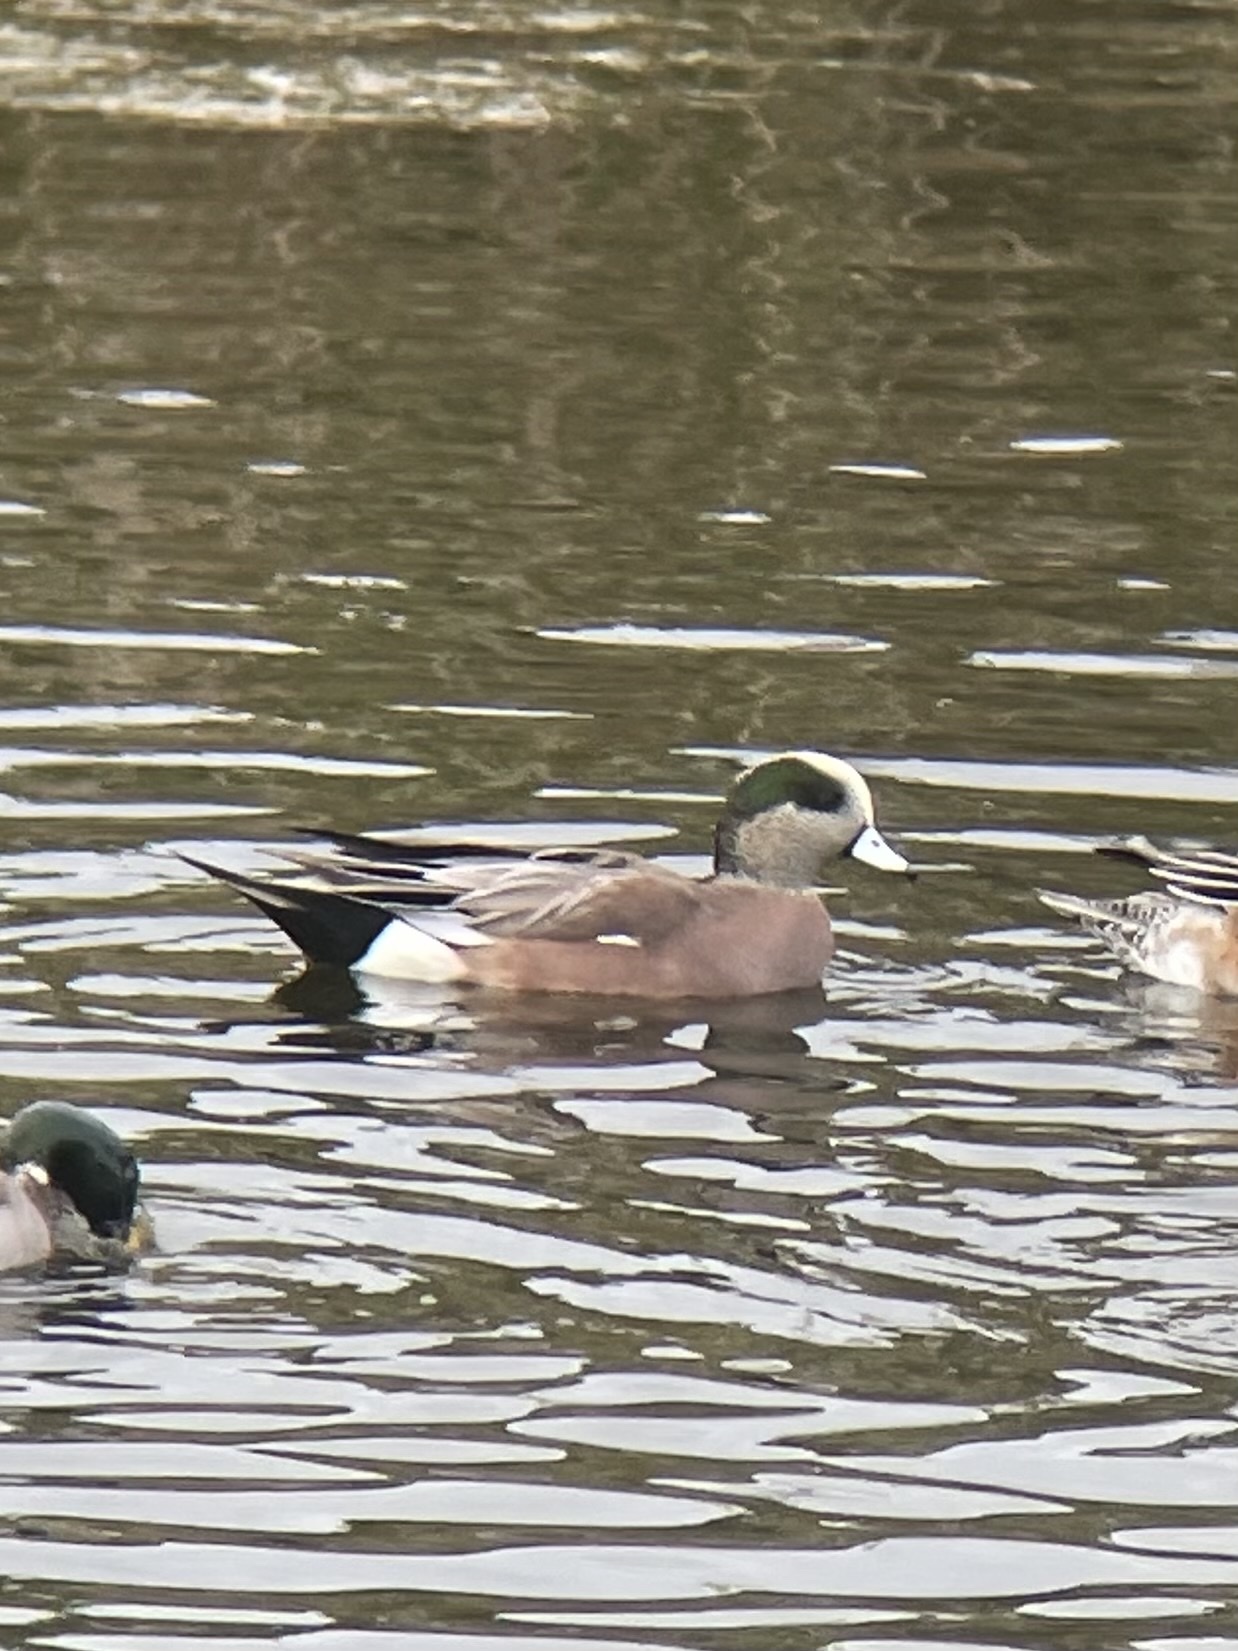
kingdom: Animalia
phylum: Chordata
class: Aves
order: Anseriformes
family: Anatidae
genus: Mareca
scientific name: Mareca americana
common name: American wigeon
